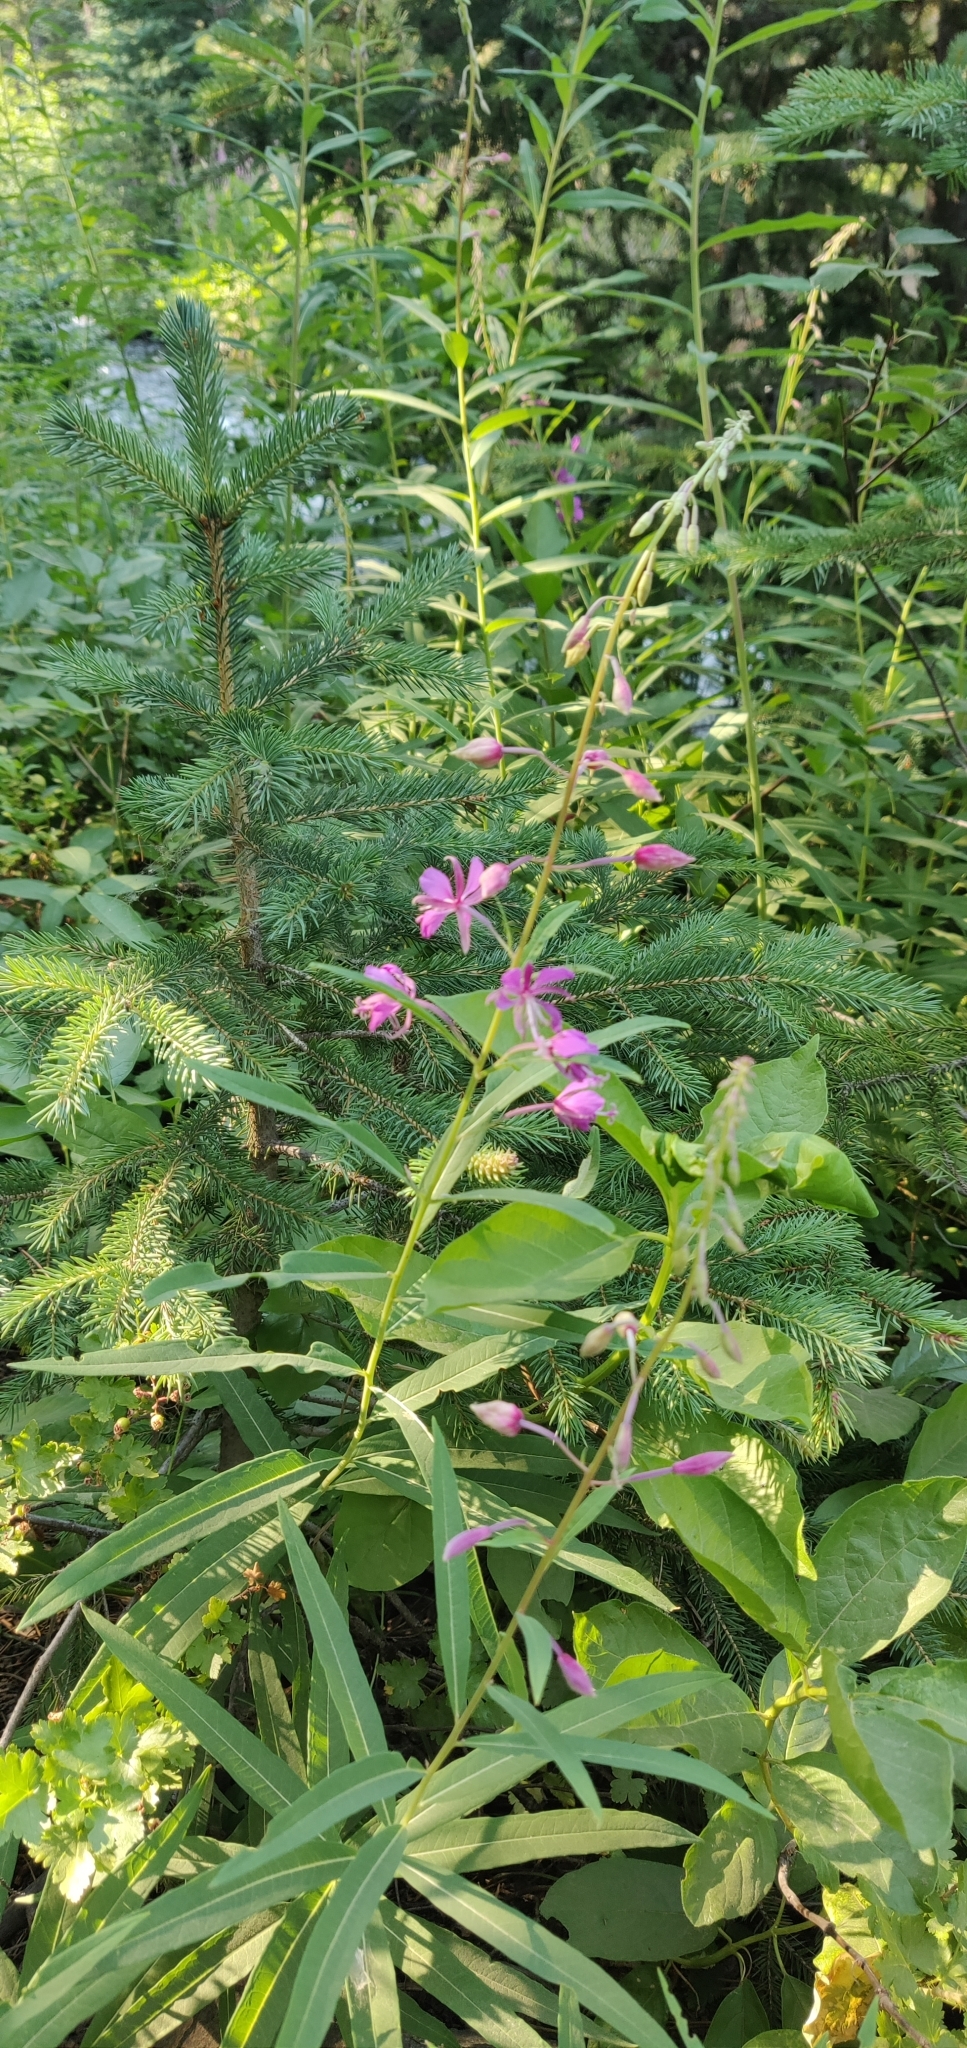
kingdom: Plantae
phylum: Tracheophyta
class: Magnoliopsida
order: Myrtales
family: Onagraceae
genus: Chamaenerion
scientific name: Chamaenerion angustifolium
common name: Fireweed
